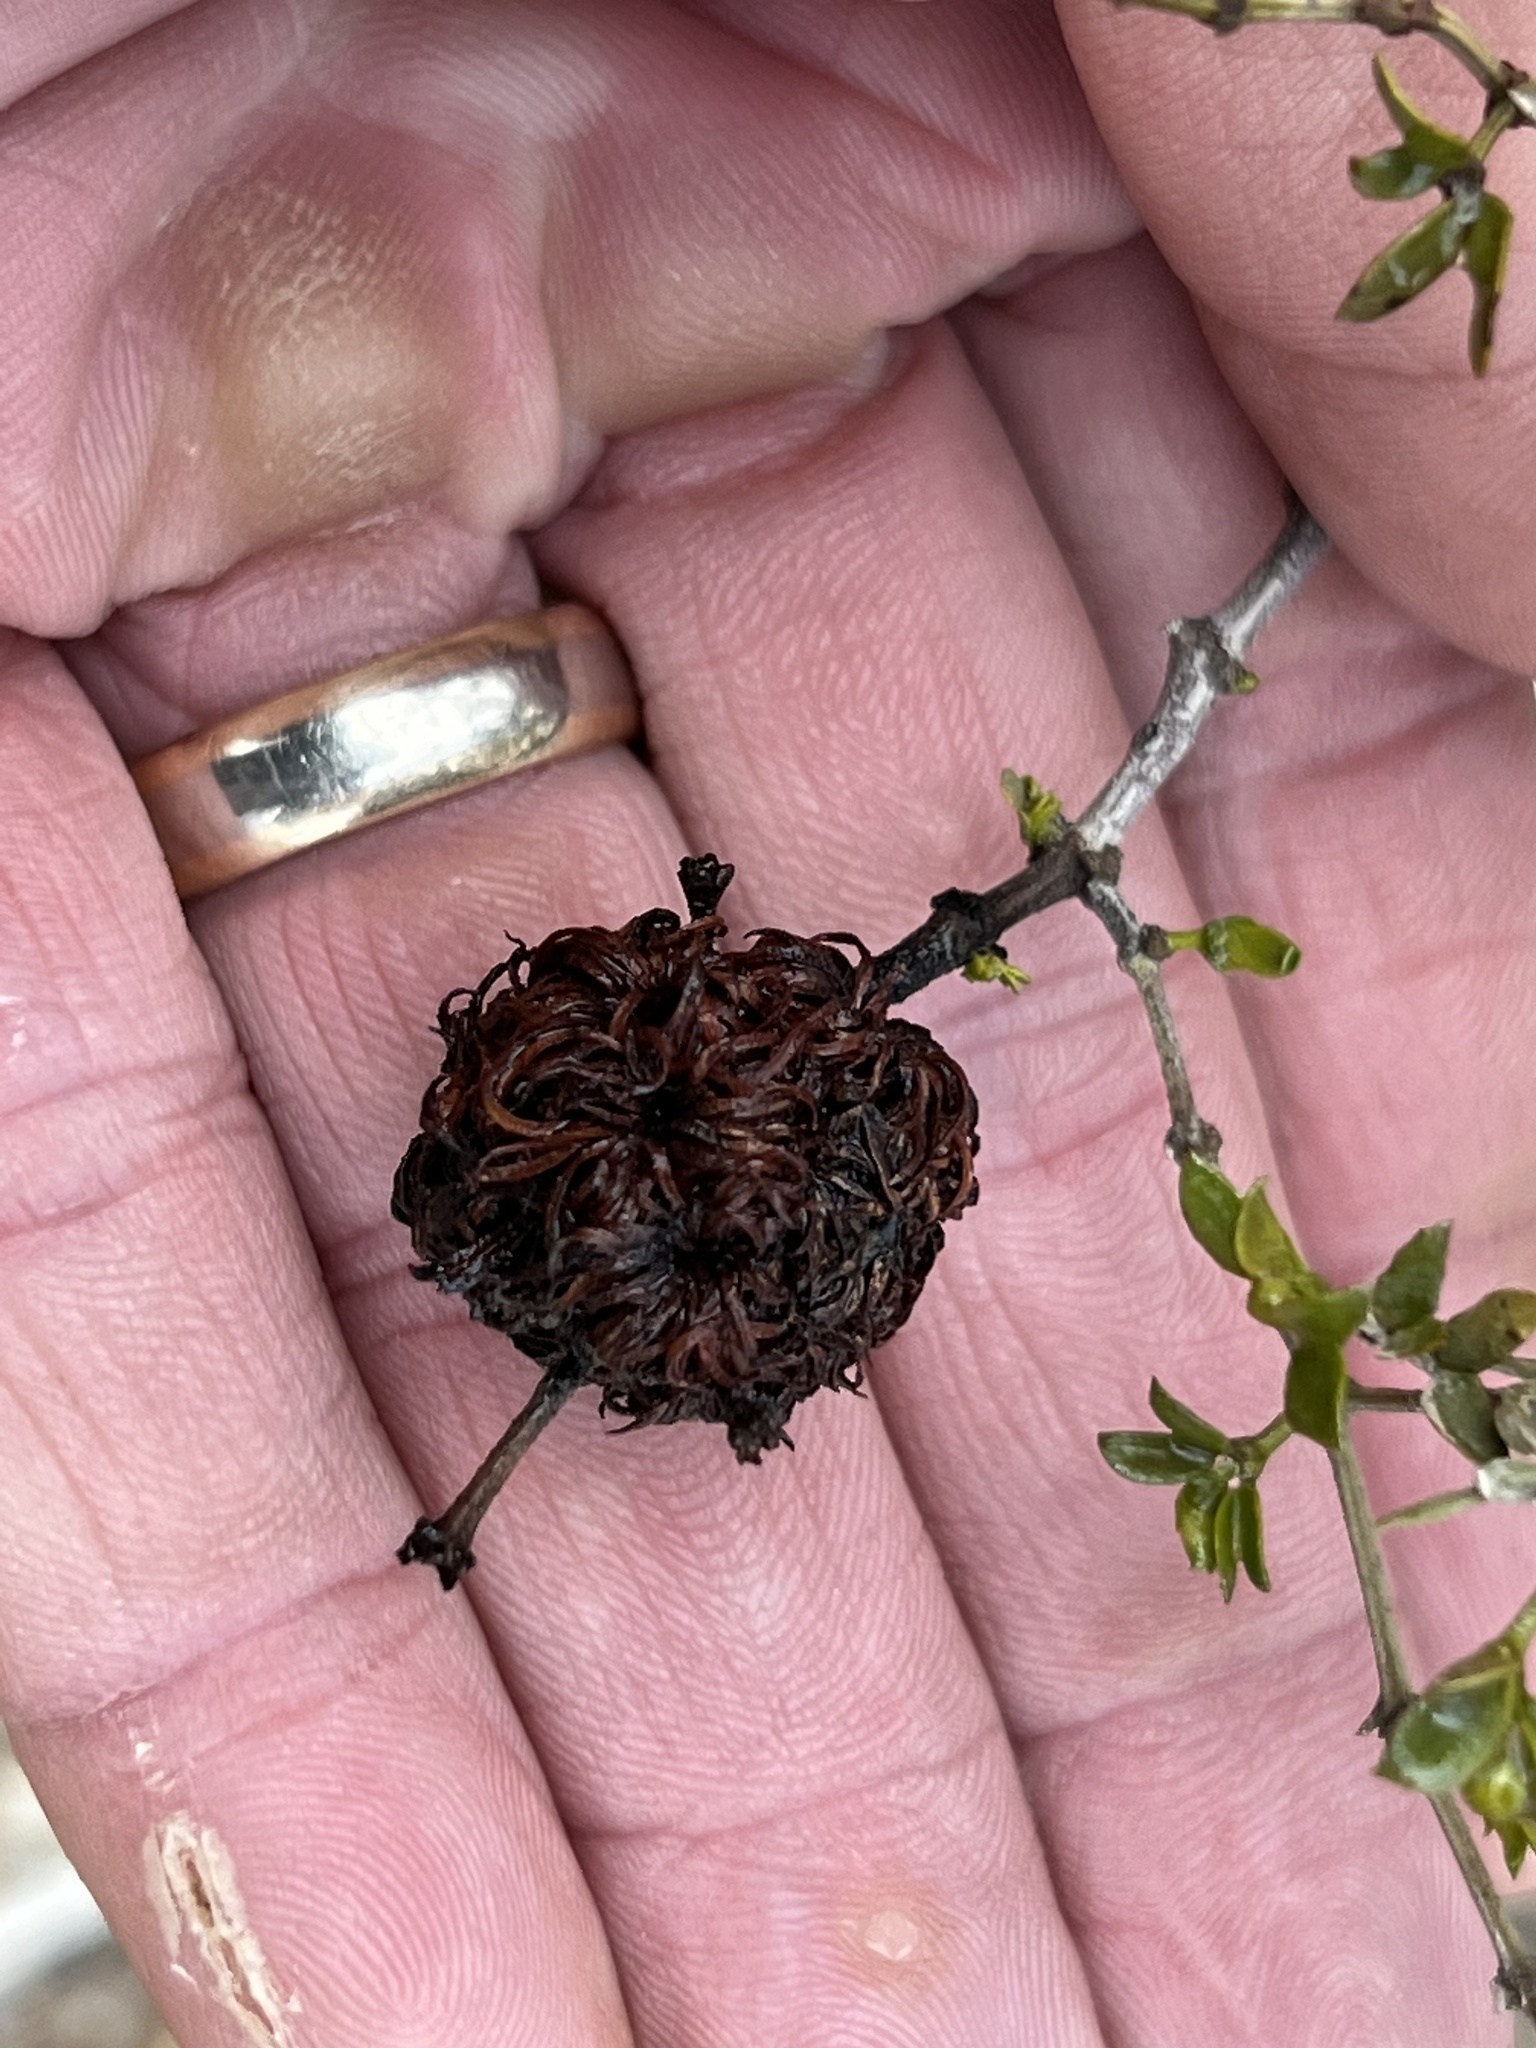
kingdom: Animalia
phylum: Arthropoda
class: Insecta
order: Diptera
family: Cecidomyiidae
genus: Asphondylia
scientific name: Asphondylia auripila
